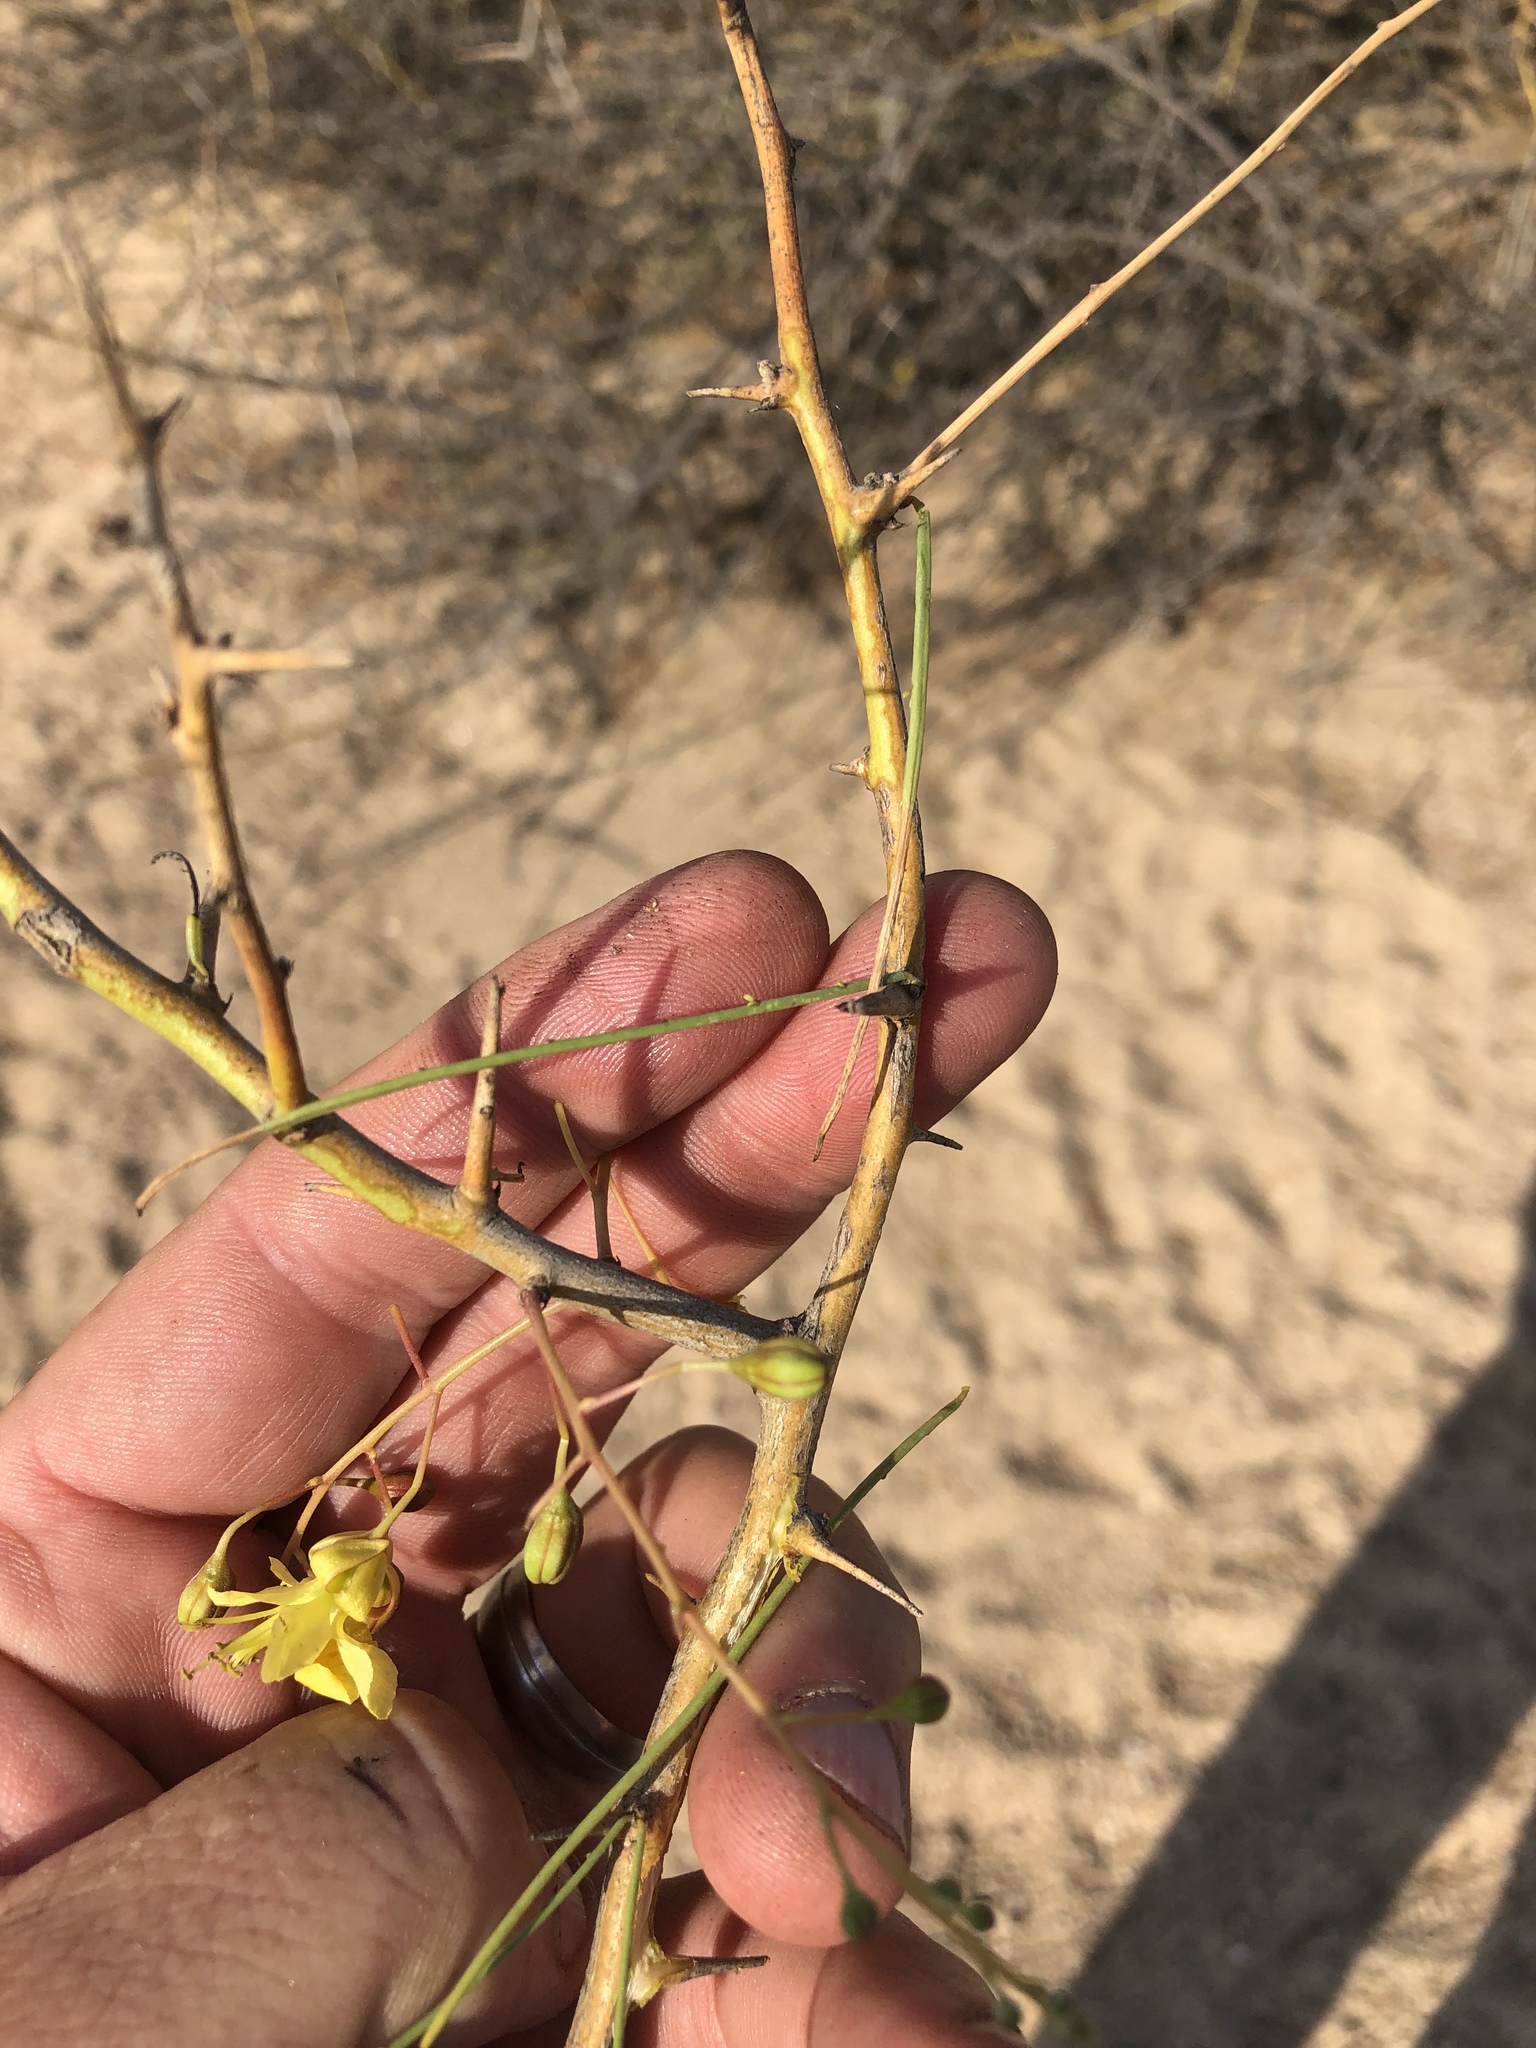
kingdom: Plantae
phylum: Tracheophyta
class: Magnoliopsida
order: Fabales
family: Fabaceae
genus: Parkinsonia
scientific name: Parkinsonia africana
